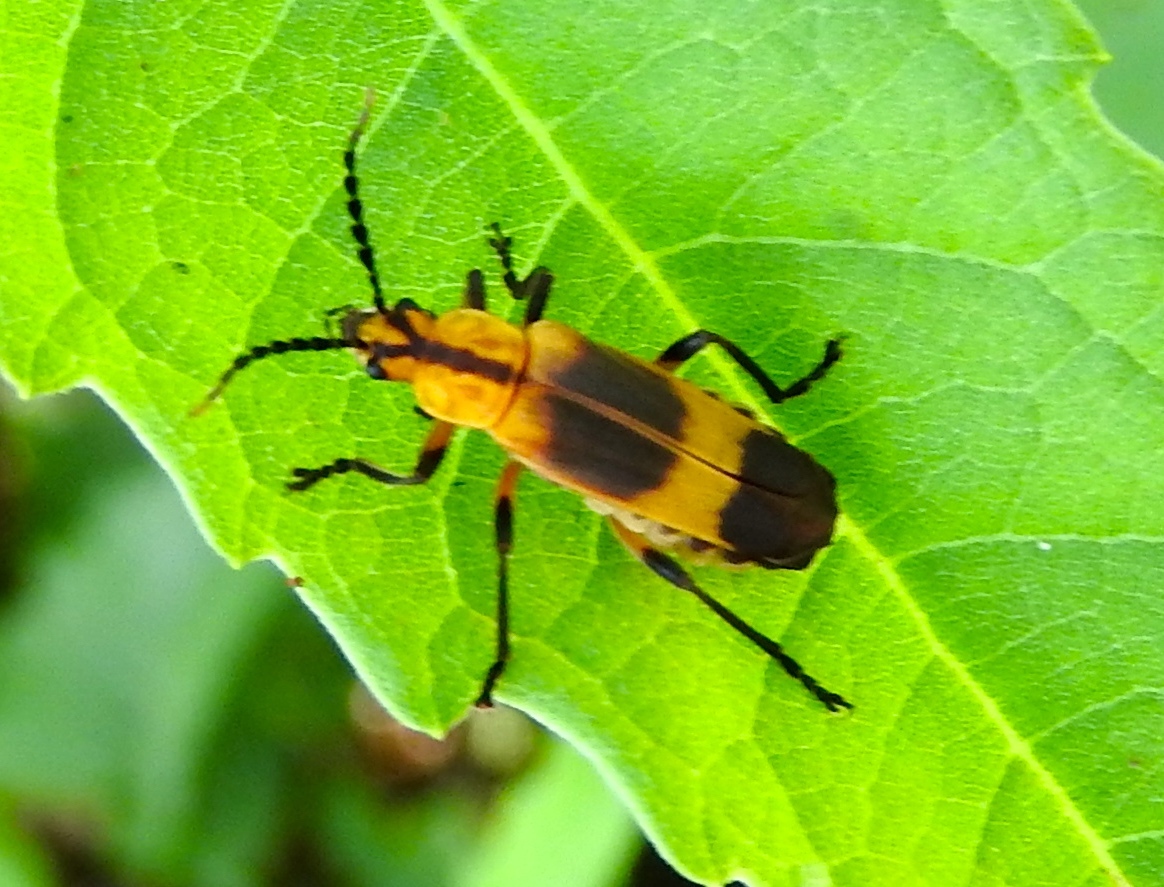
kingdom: Animalia
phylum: Arthropoda
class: Insecta
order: Coleoptera
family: Cantharidae
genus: Daiphron
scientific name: Daiphron proteum
